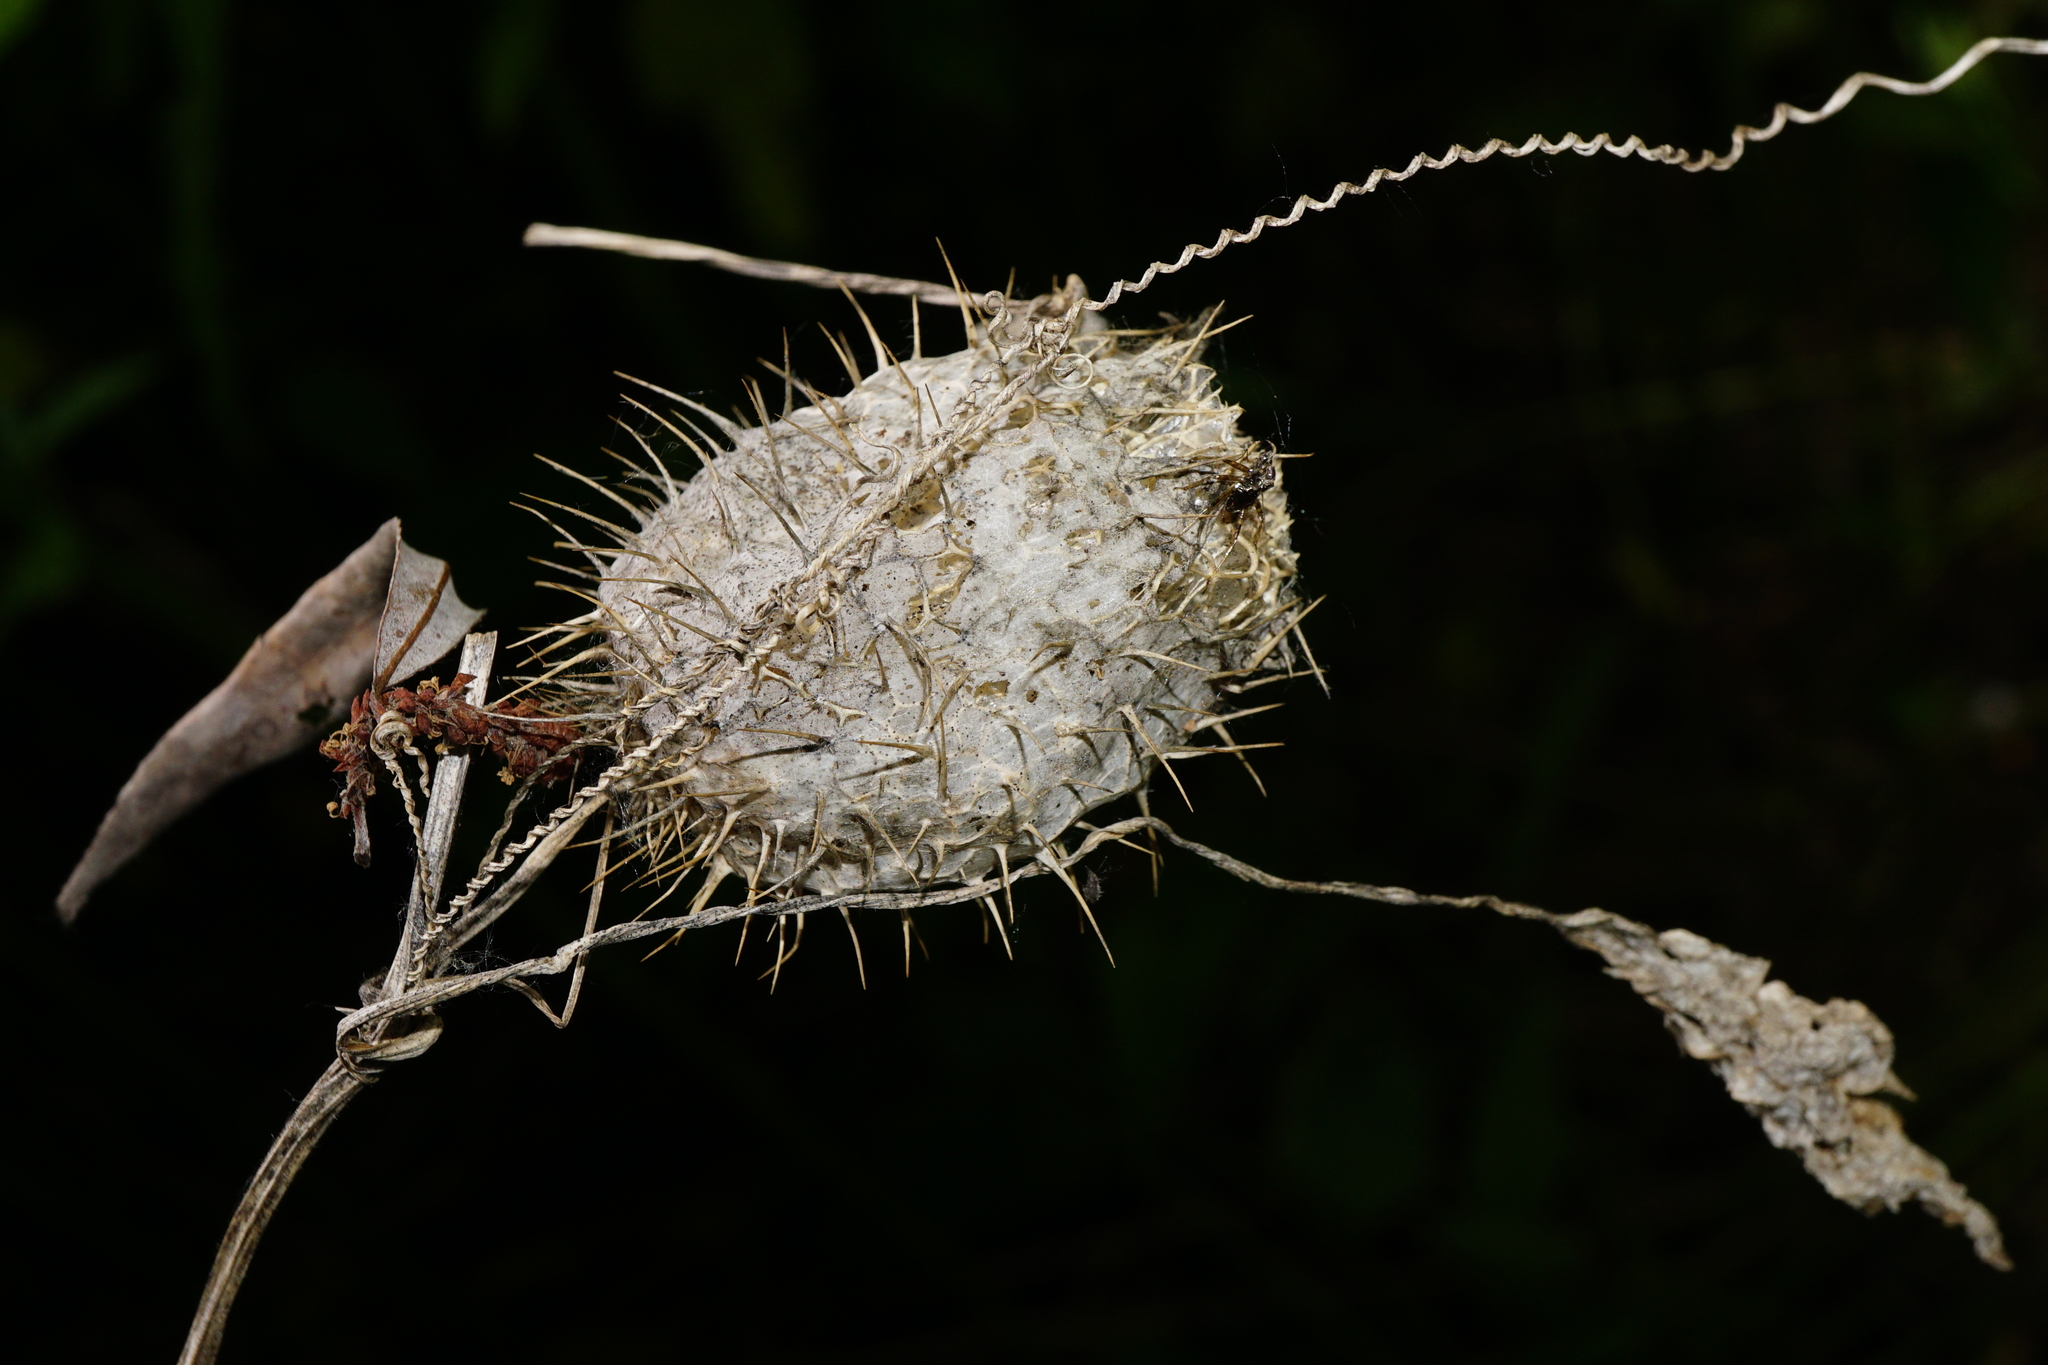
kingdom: Plantae
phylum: Tracheophyta
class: Magnoliopsida
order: Cucurbitales
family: Cucurbitaceae
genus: Echinocystis
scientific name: Echinocystis lobata
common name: Wild cucumber
